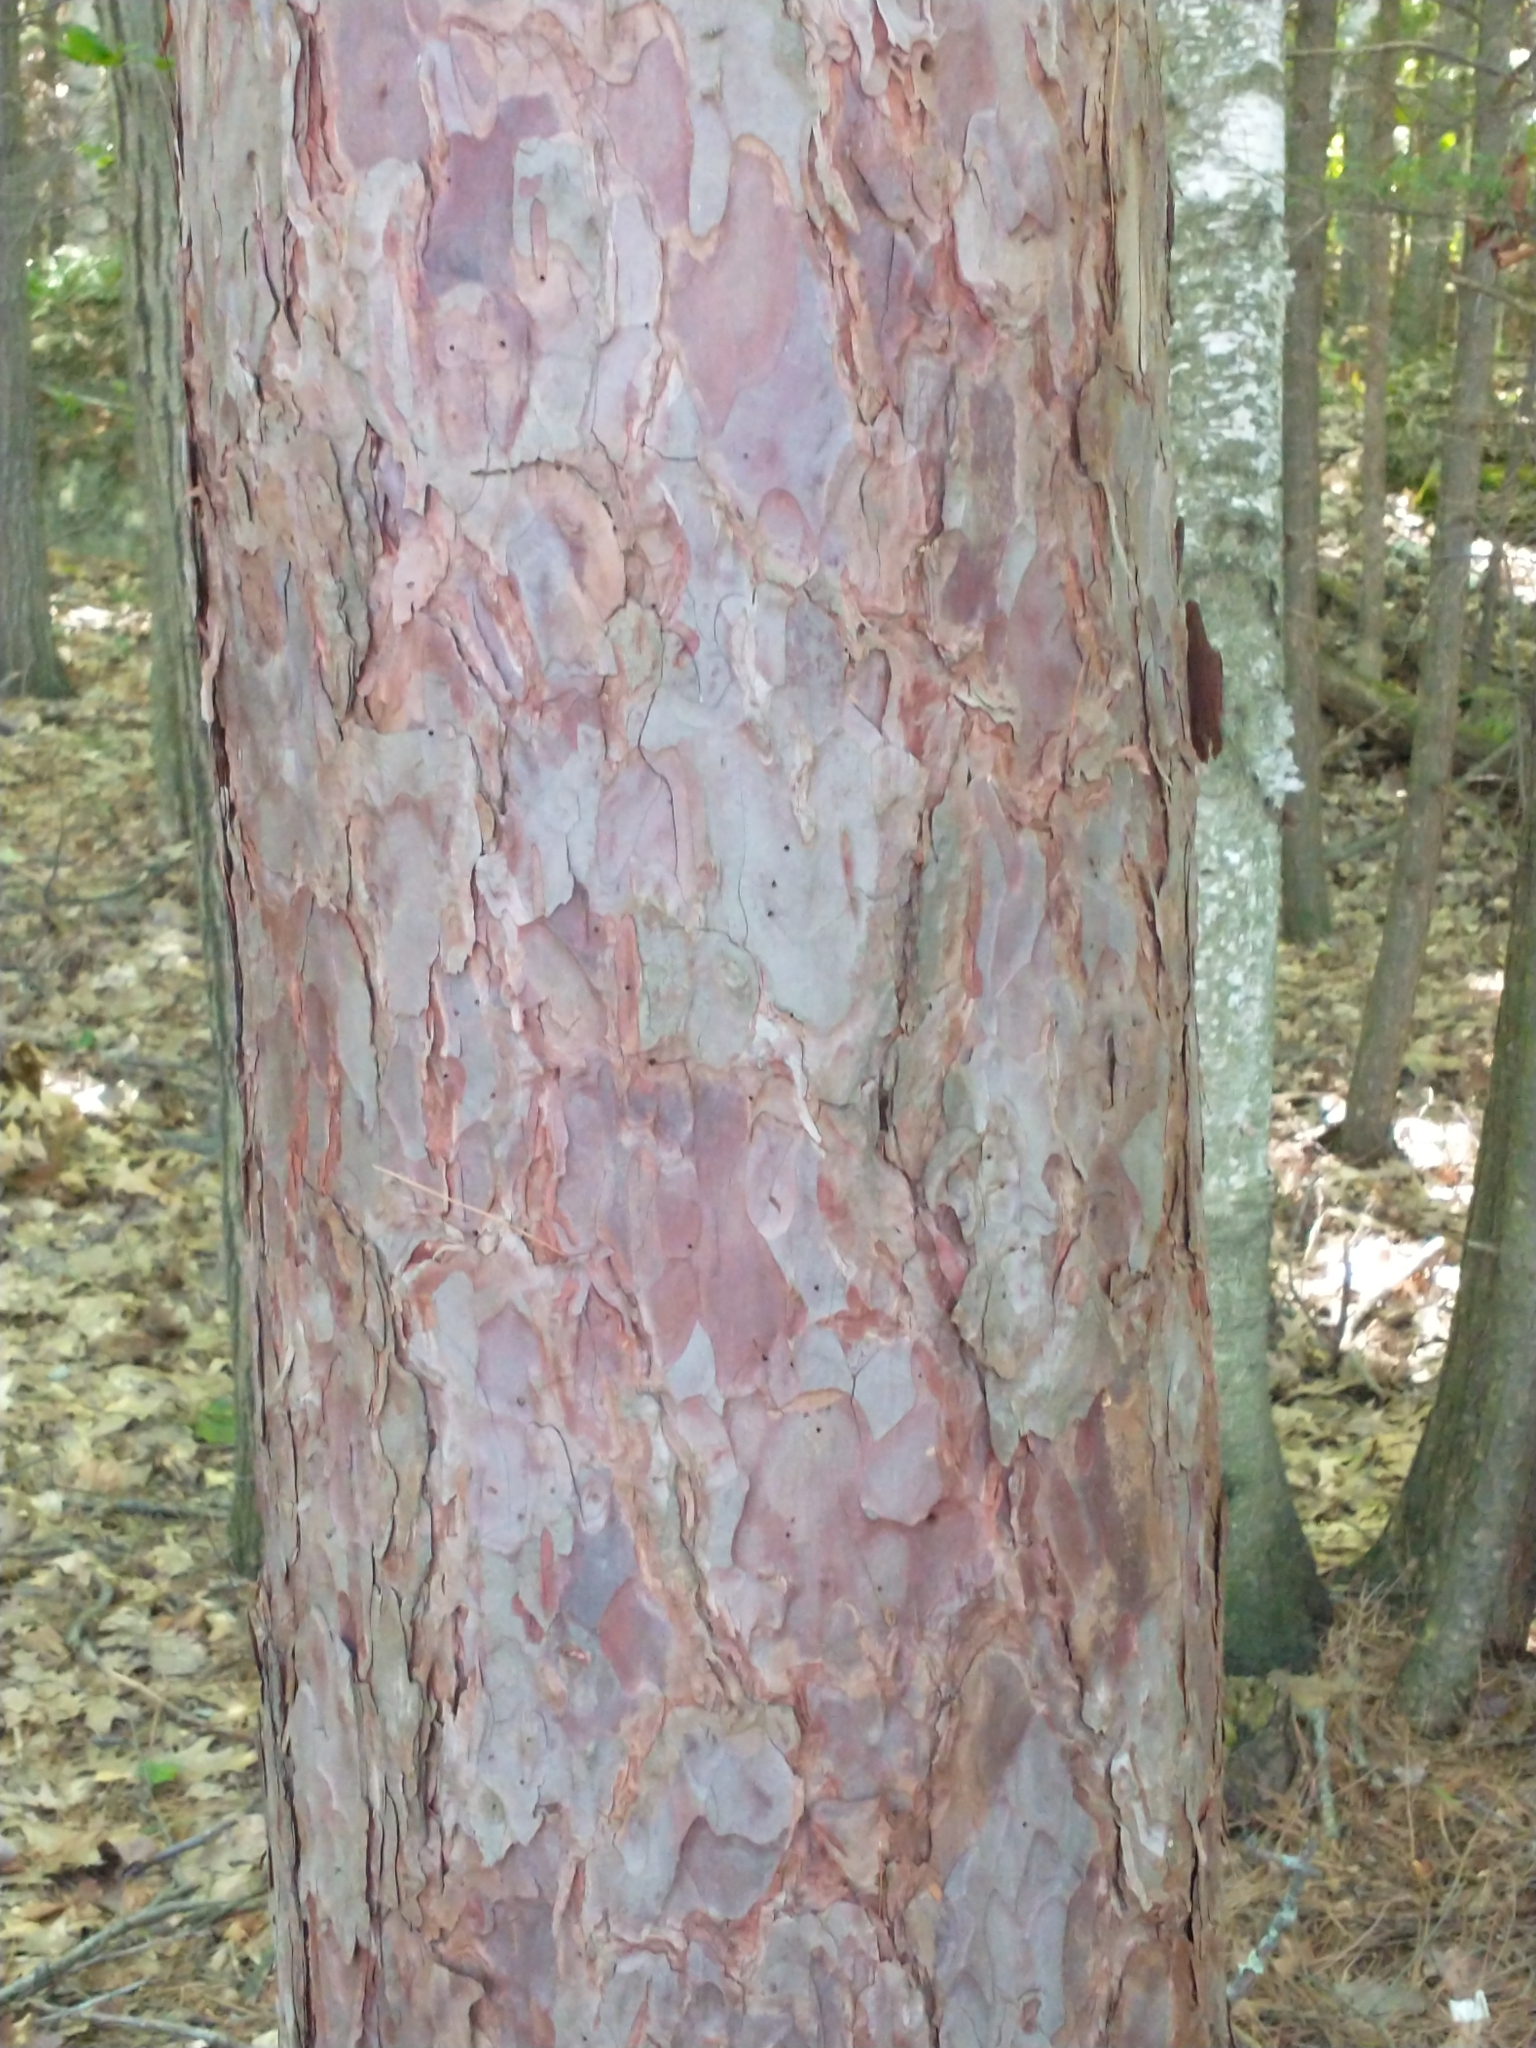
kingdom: Plantae
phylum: Tracheophyta
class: Pinopsida
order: Pinales
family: Pinaceae
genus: Pinus
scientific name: Pinus resinosa
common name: Norway pine
